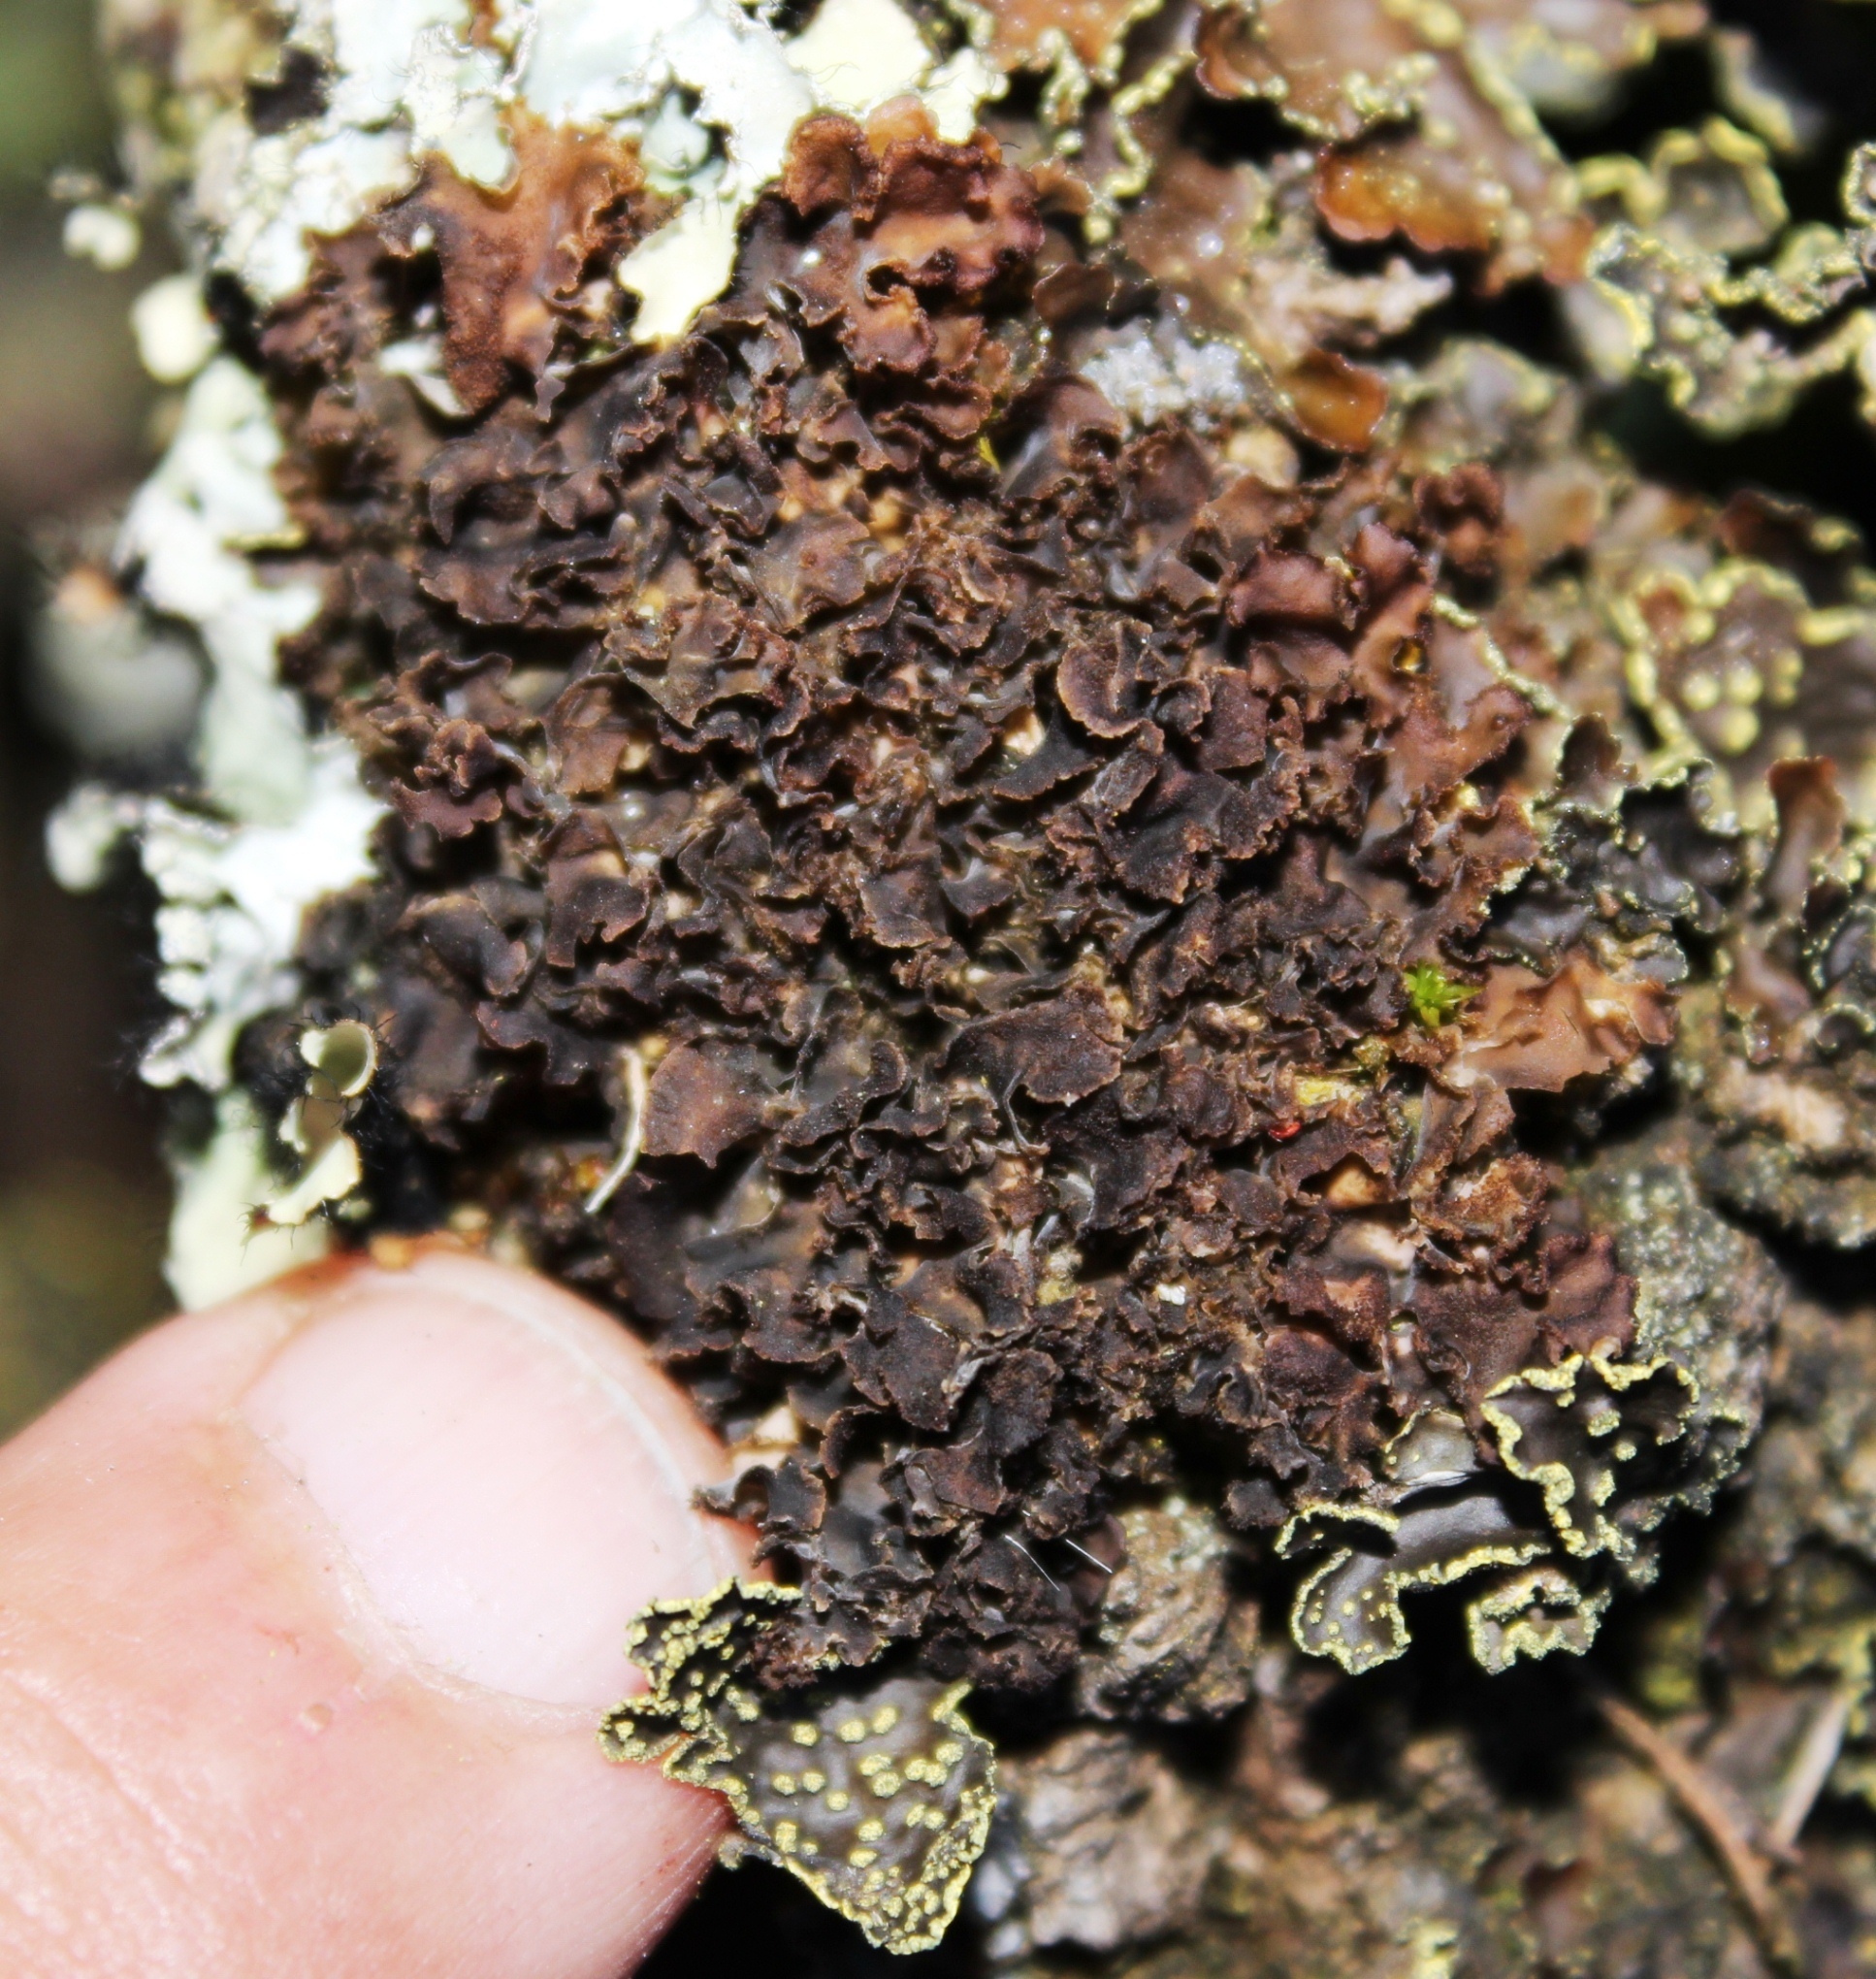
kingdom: Fungi
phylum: Ascomycota
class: Lecanoromycetes
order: Peltigerales
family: Lobariaceae
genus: Pseudocyphellaria
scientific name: Pseudocyphellaria crocata
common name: Golden specklebelly
